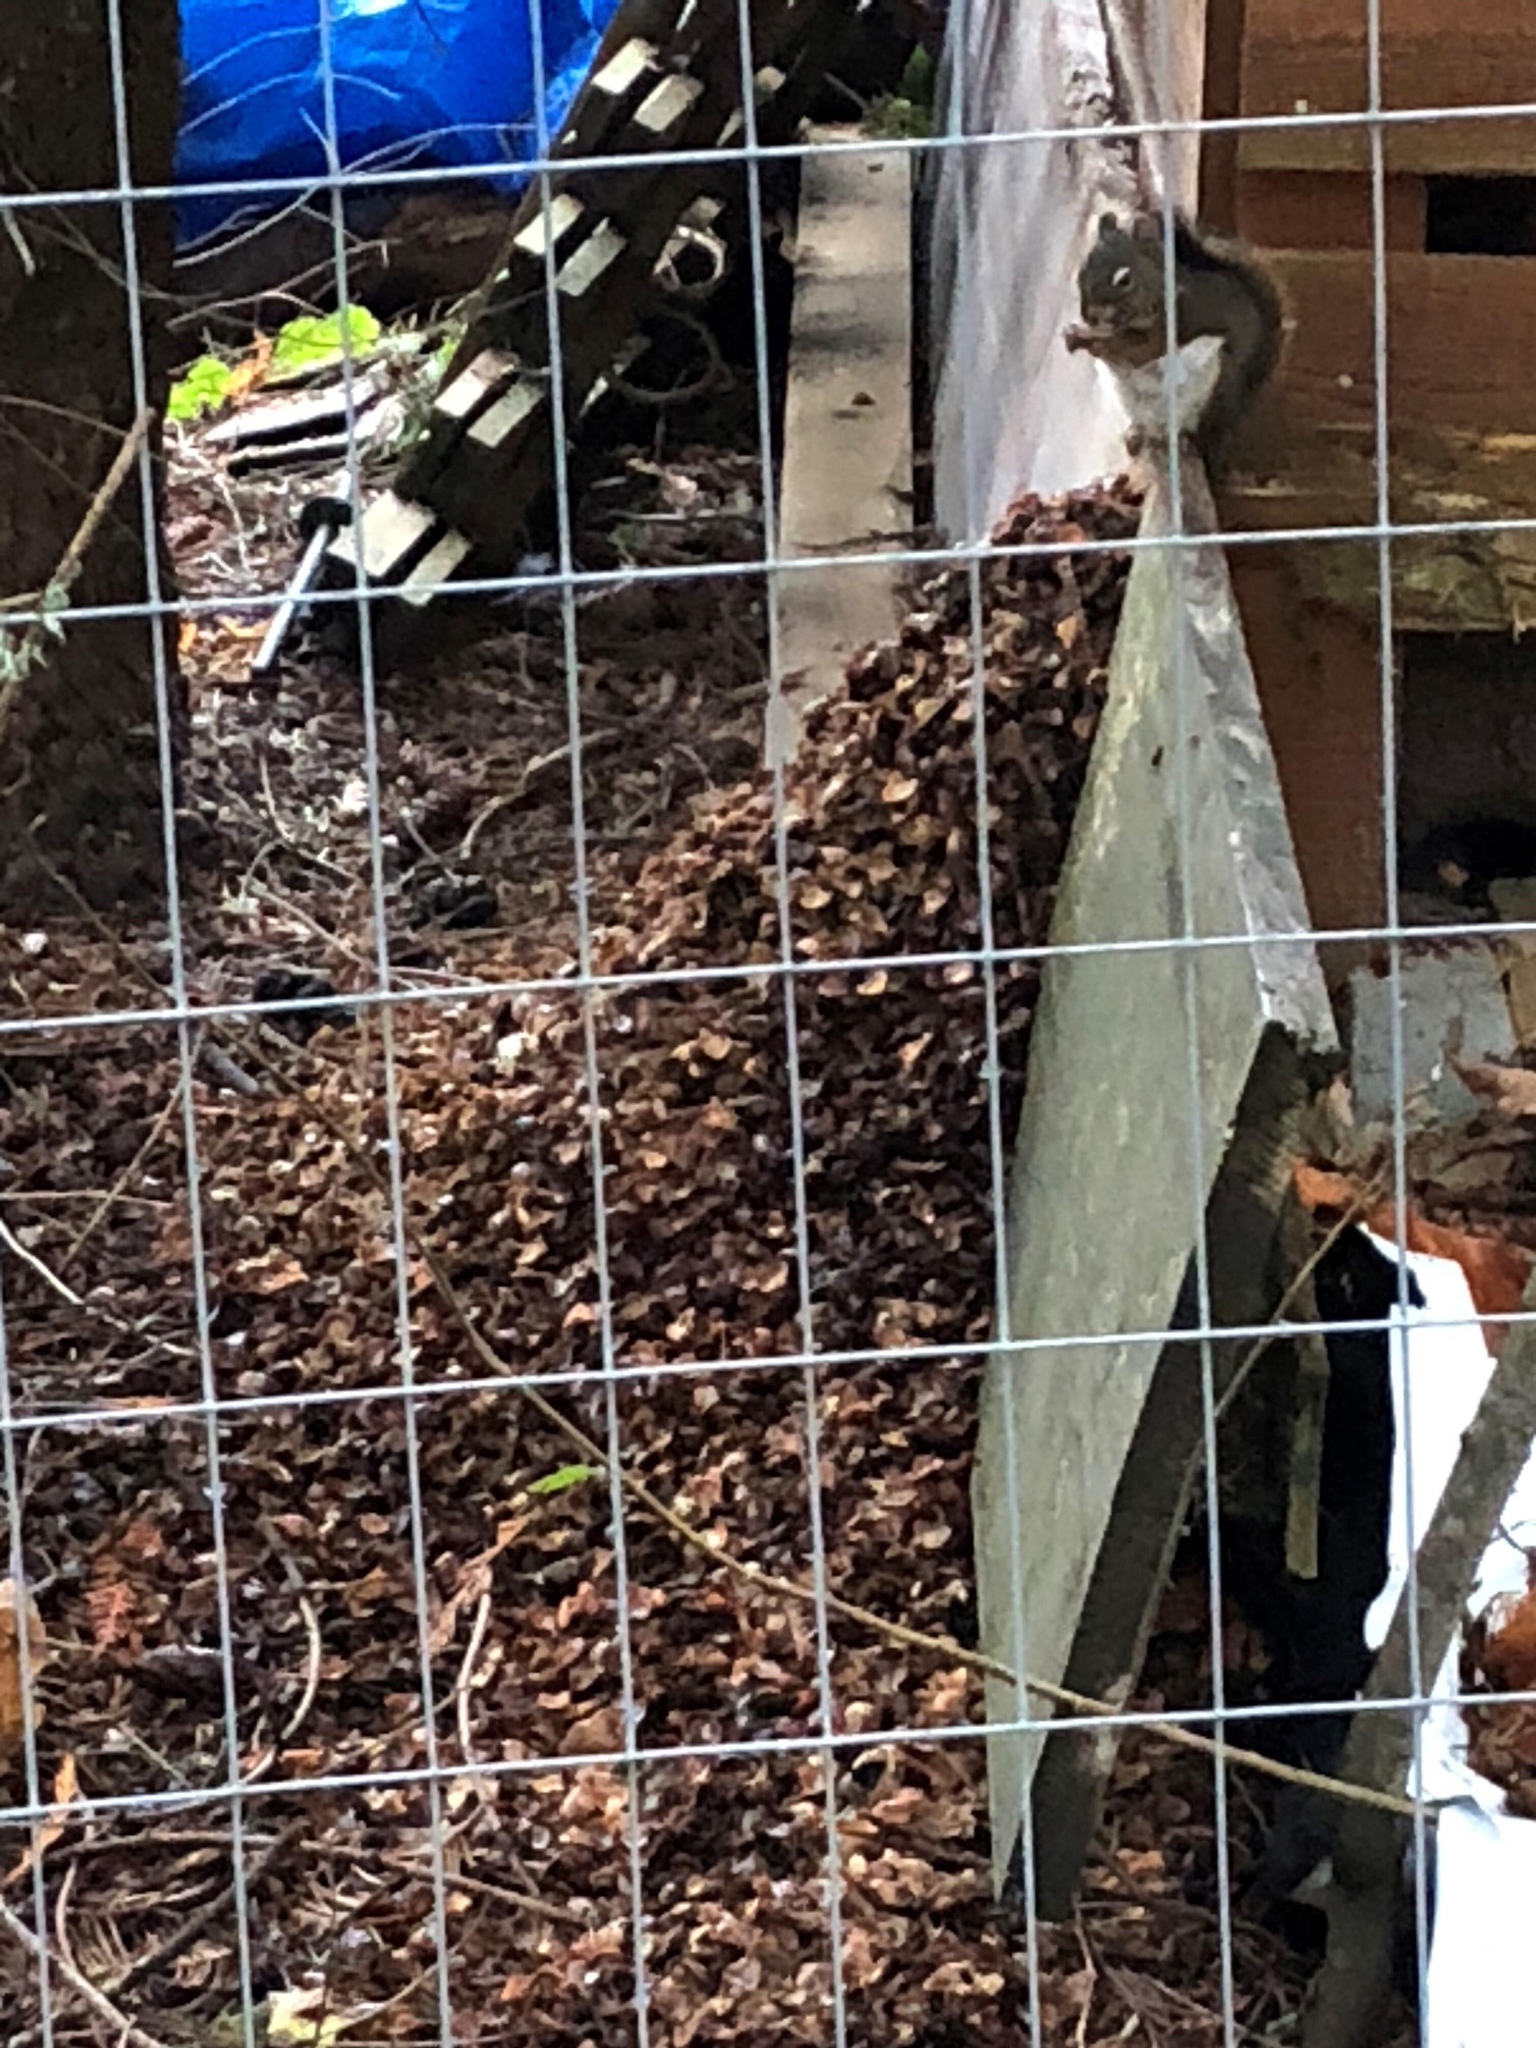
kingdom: Animalia
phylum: Chordata
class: Mammalia
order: Rodentia
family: Sciuridae
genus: Tamiasciurus
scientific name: Tamiasciurus hudsonicus
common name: Red squirrel
